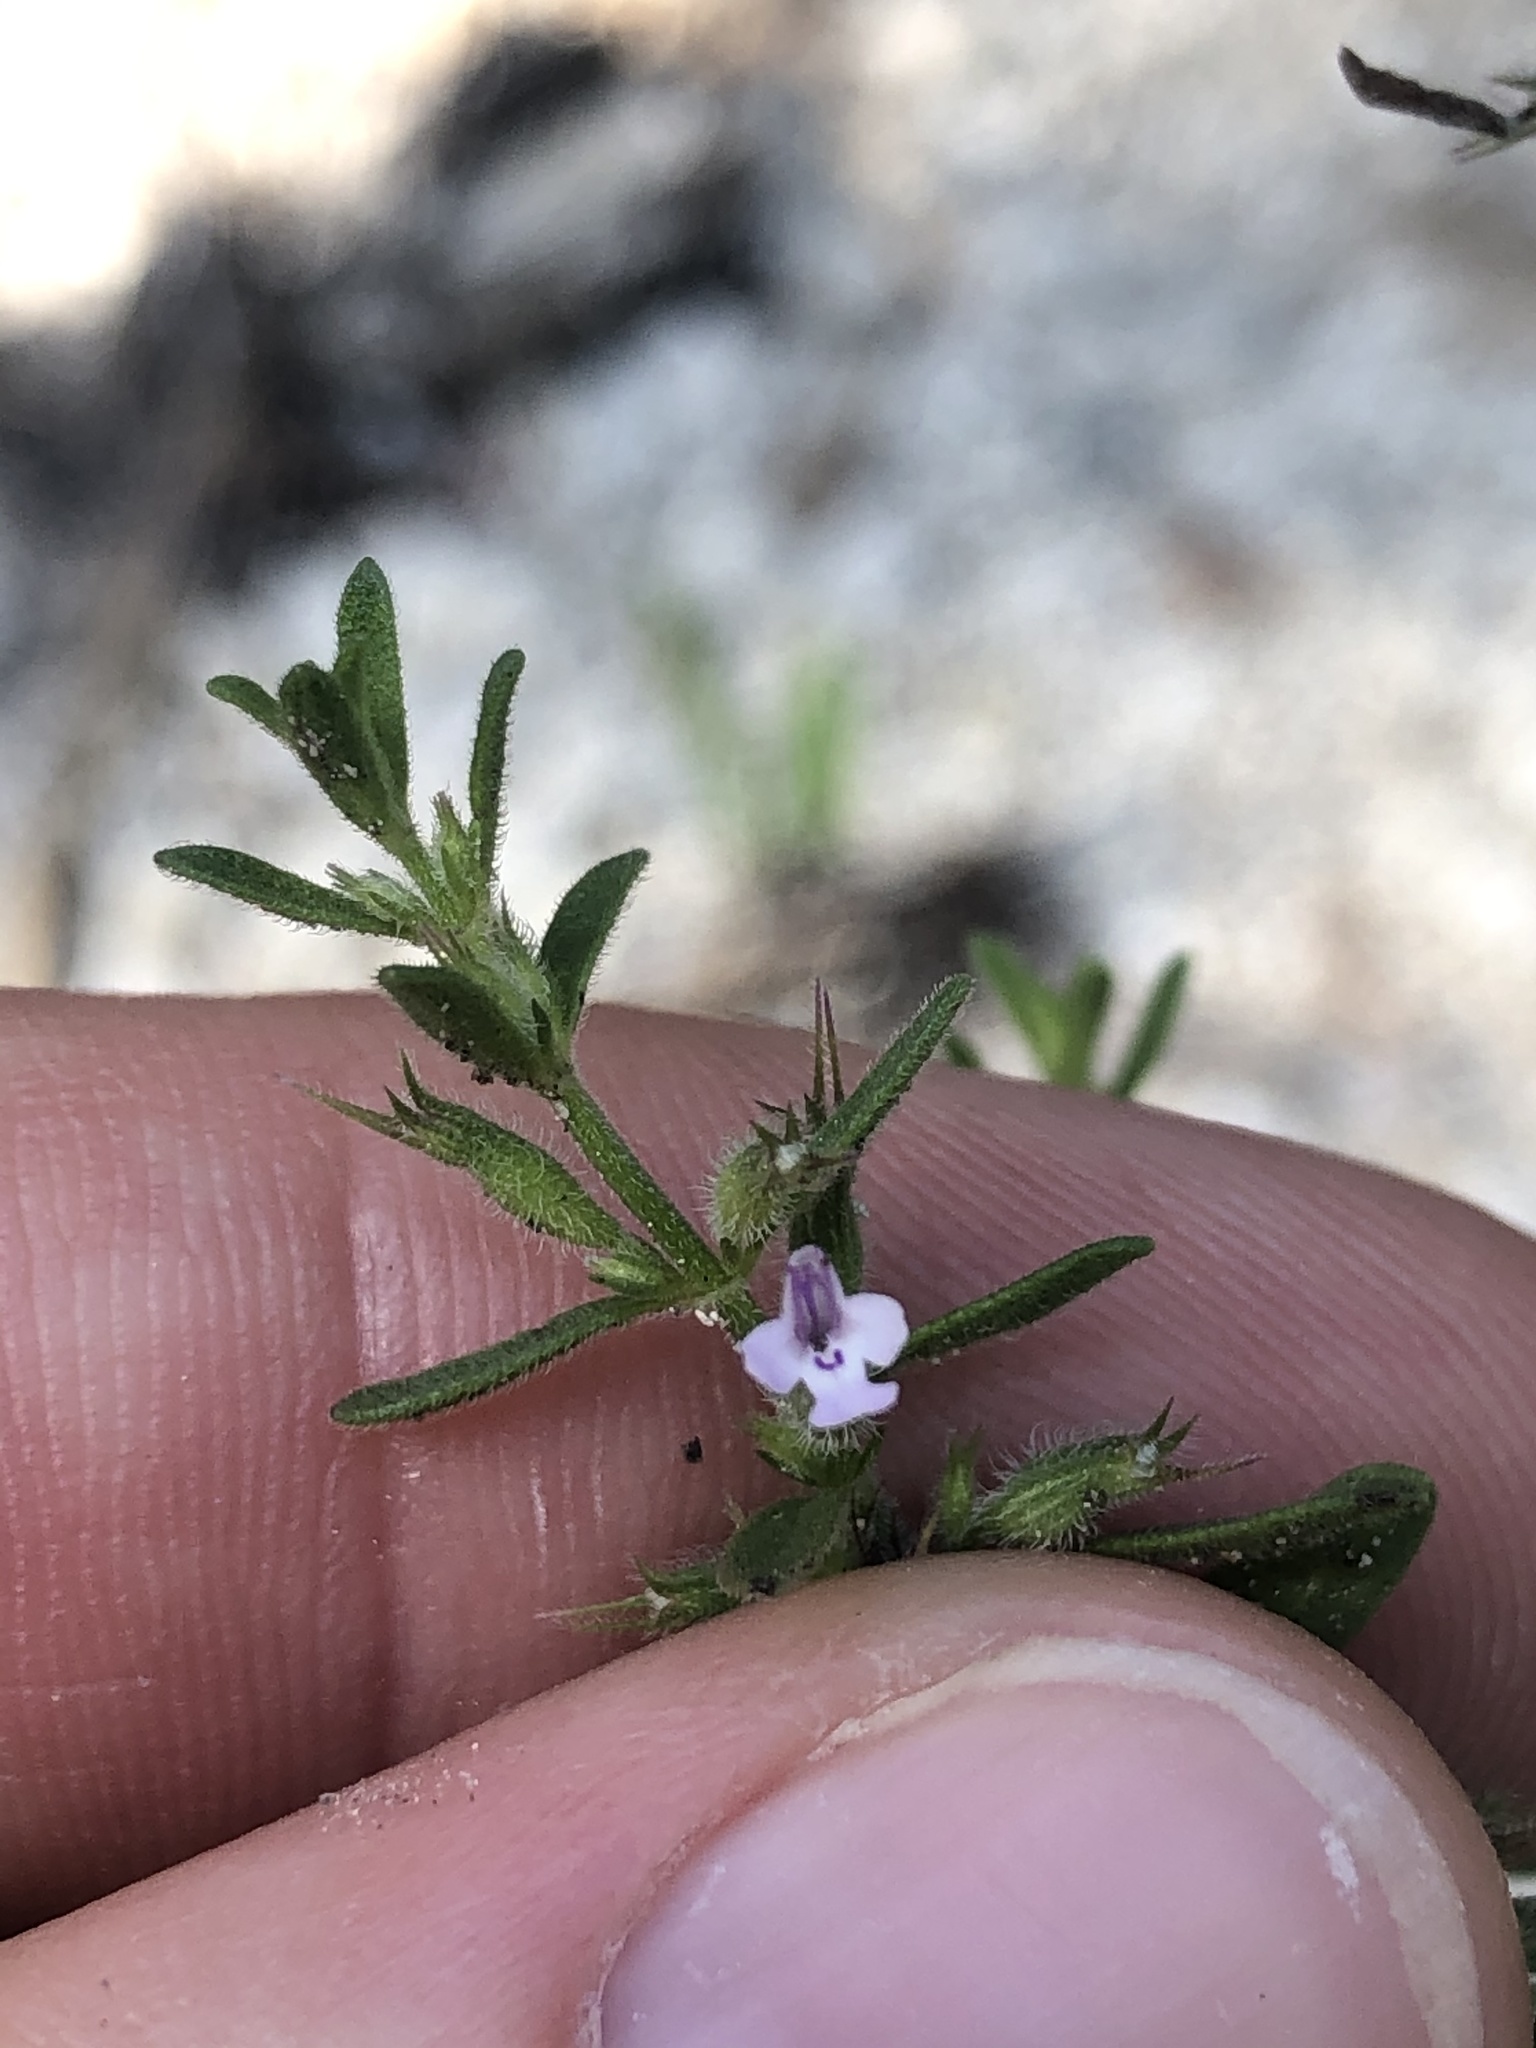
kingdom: Plantae
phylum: Tracheophyta
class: Magnoliopsida
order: Lamiales
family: Lamiaceae
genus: Hedeoma
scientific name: Hedeoma reverchonii
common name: Reverchon's false penny-royal
